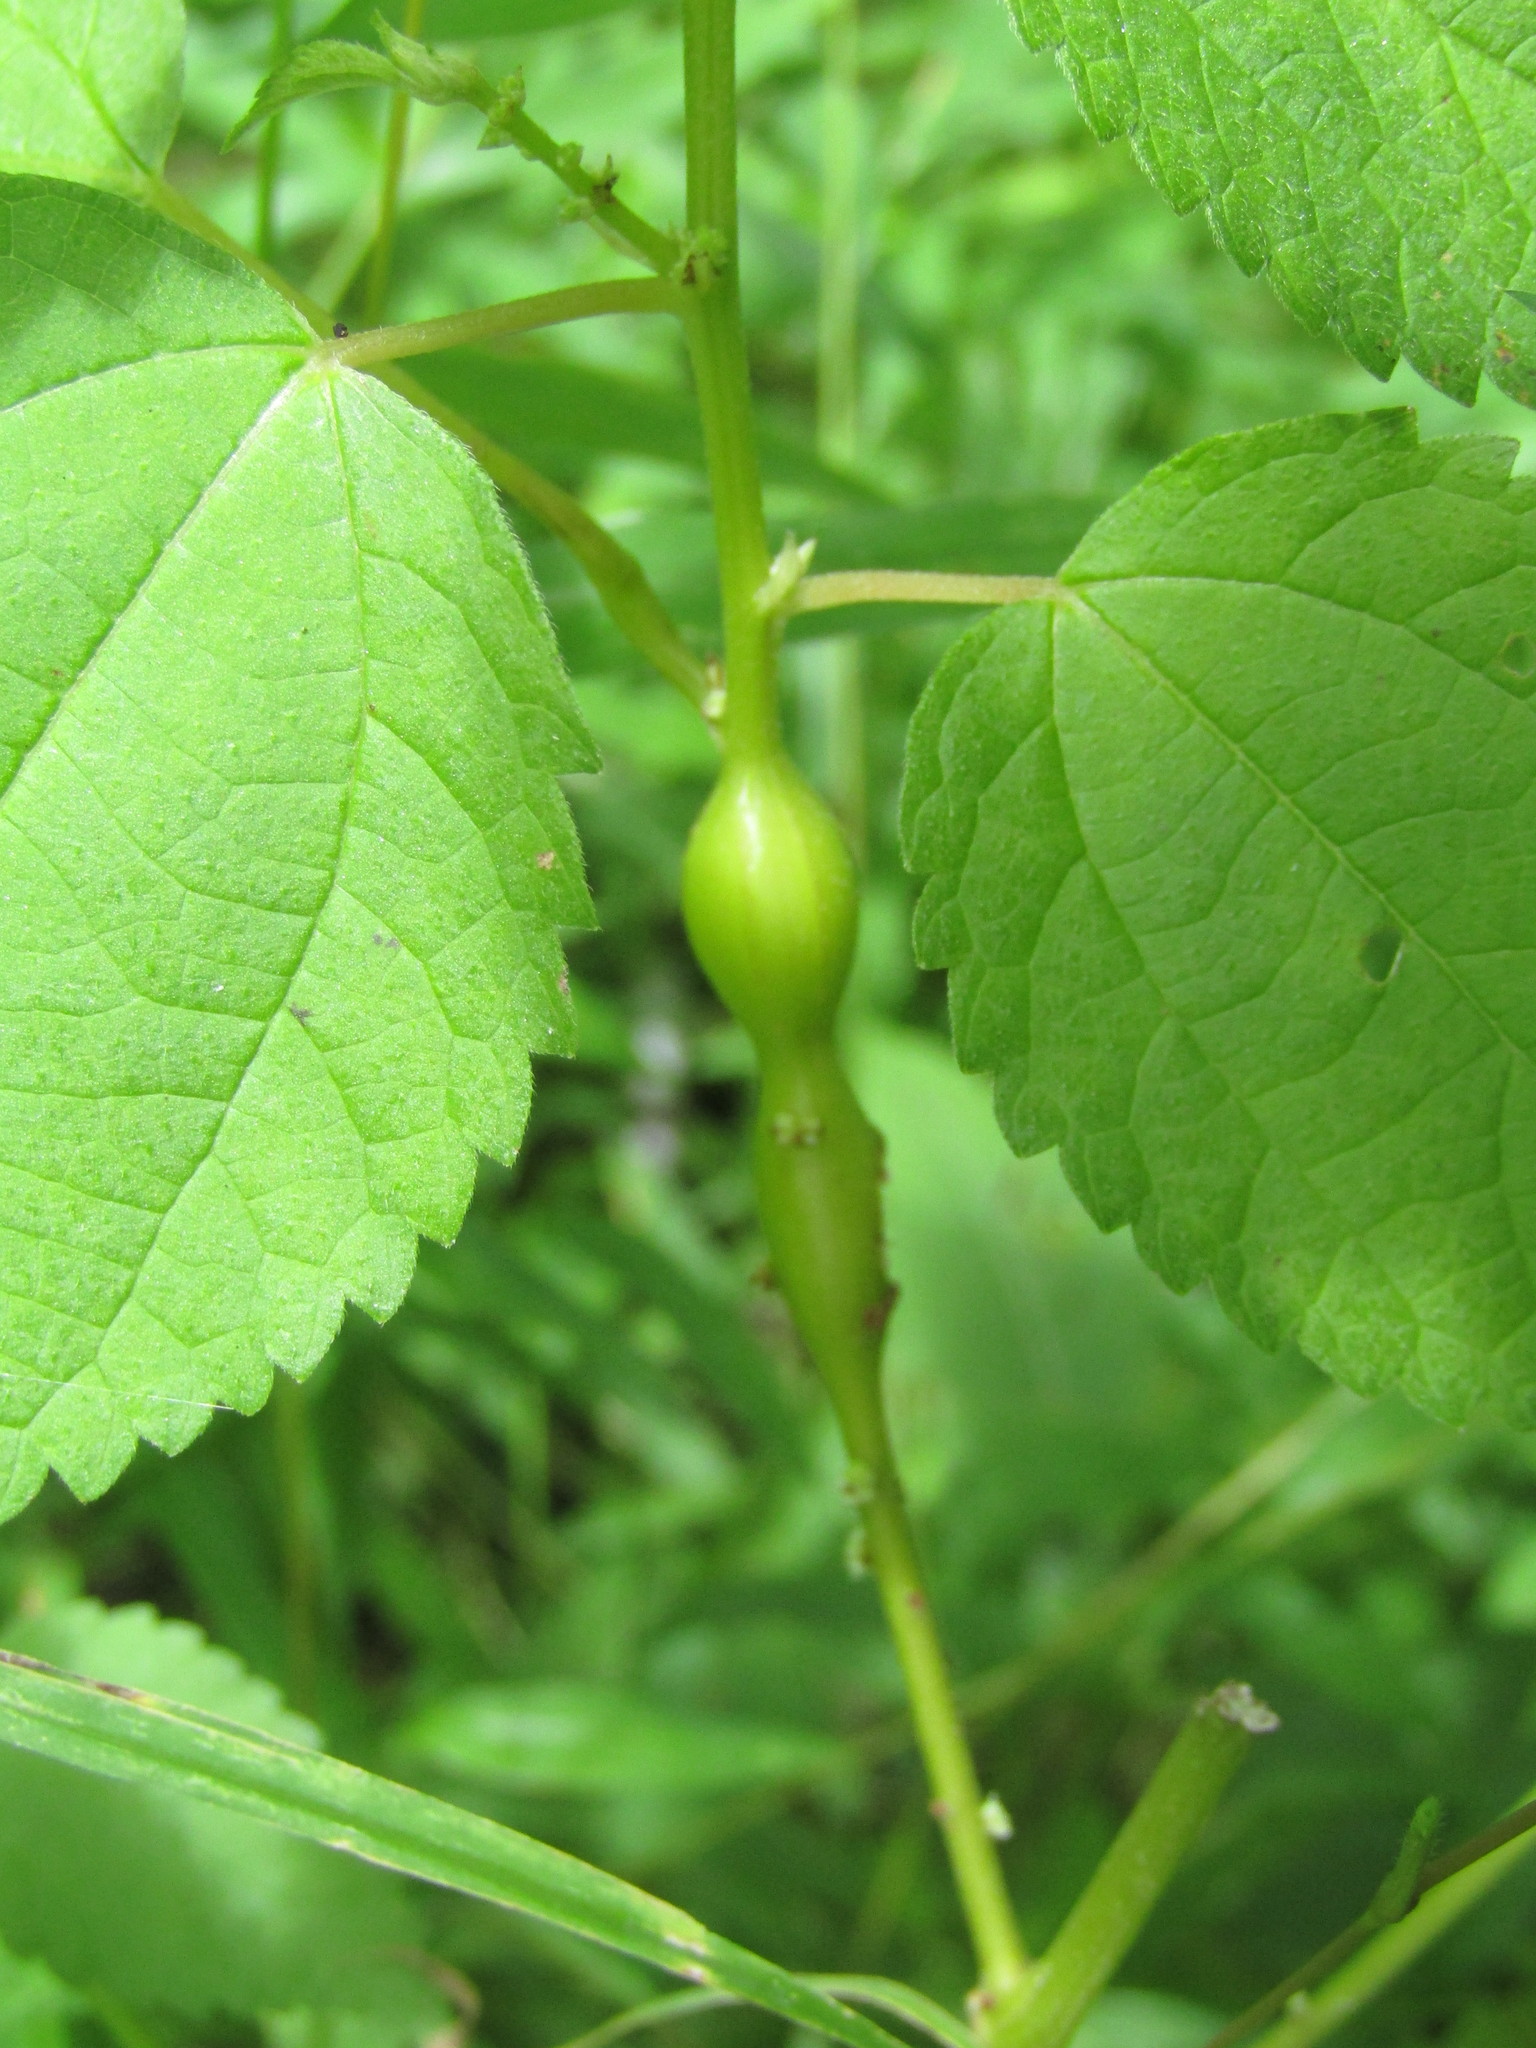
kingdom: Animalia
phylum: Arthropoda
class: Insecta
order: Diptera
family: Cecidomyiidae
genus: Neolasioptera
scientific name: Neolasioptera boehmeriae
